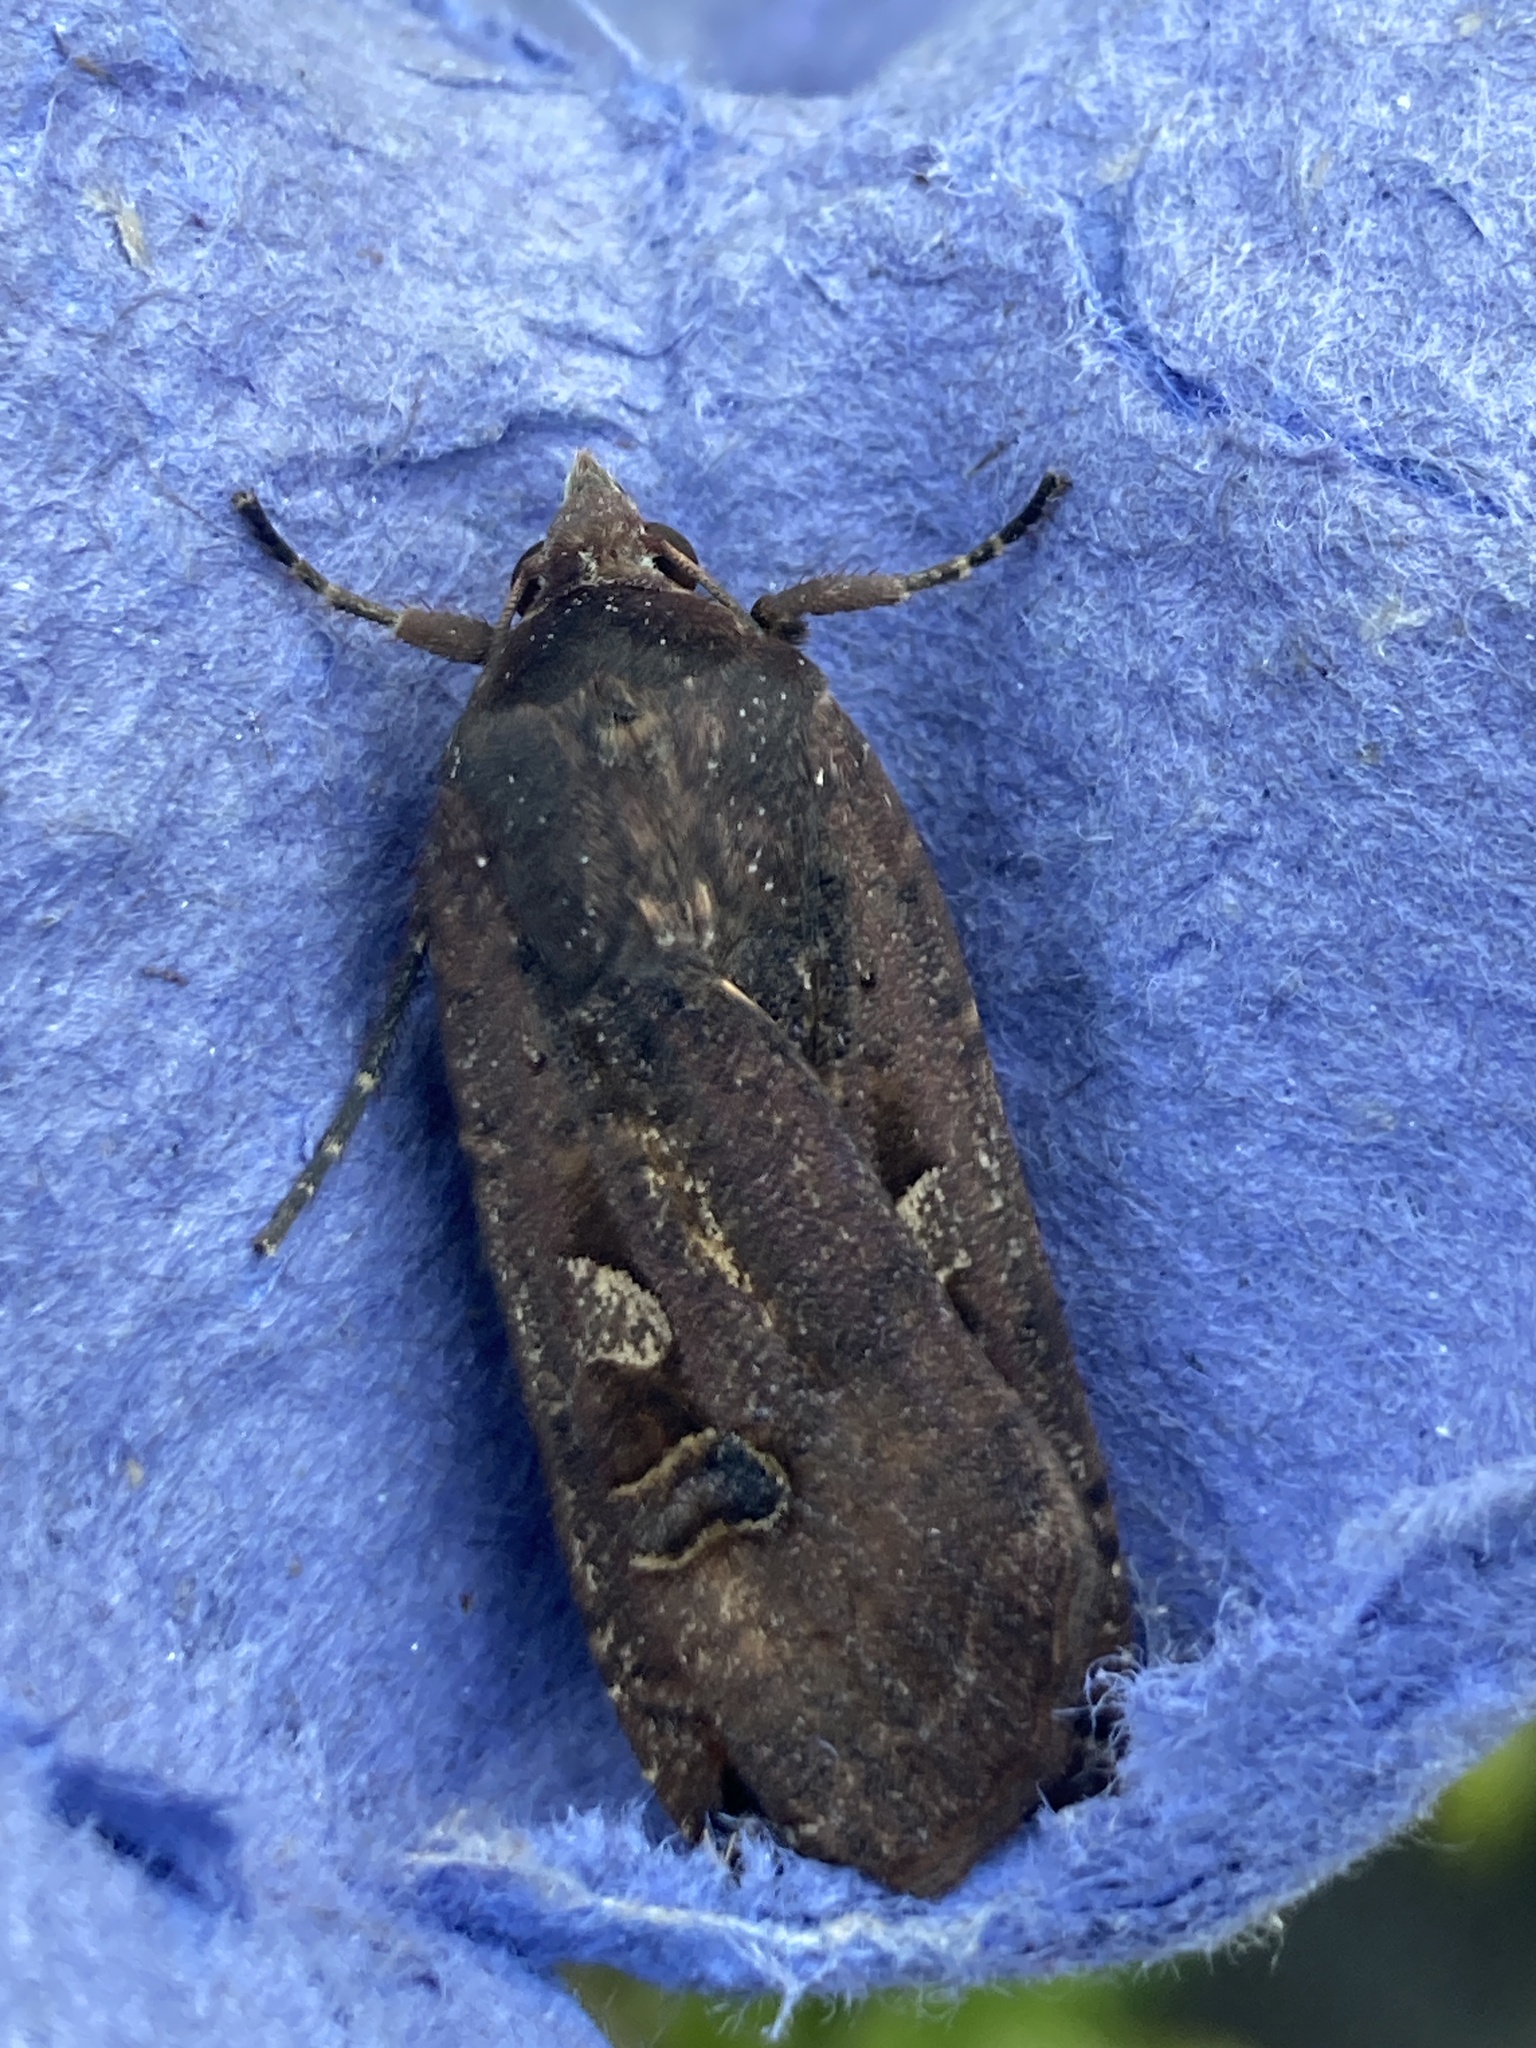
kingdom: Animalia
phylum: Arthropoda
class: Insecta
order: Lepidoptera
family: Noctuidae
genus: Noctua
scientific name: Noctua pronuba
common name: Large yellow underwing
